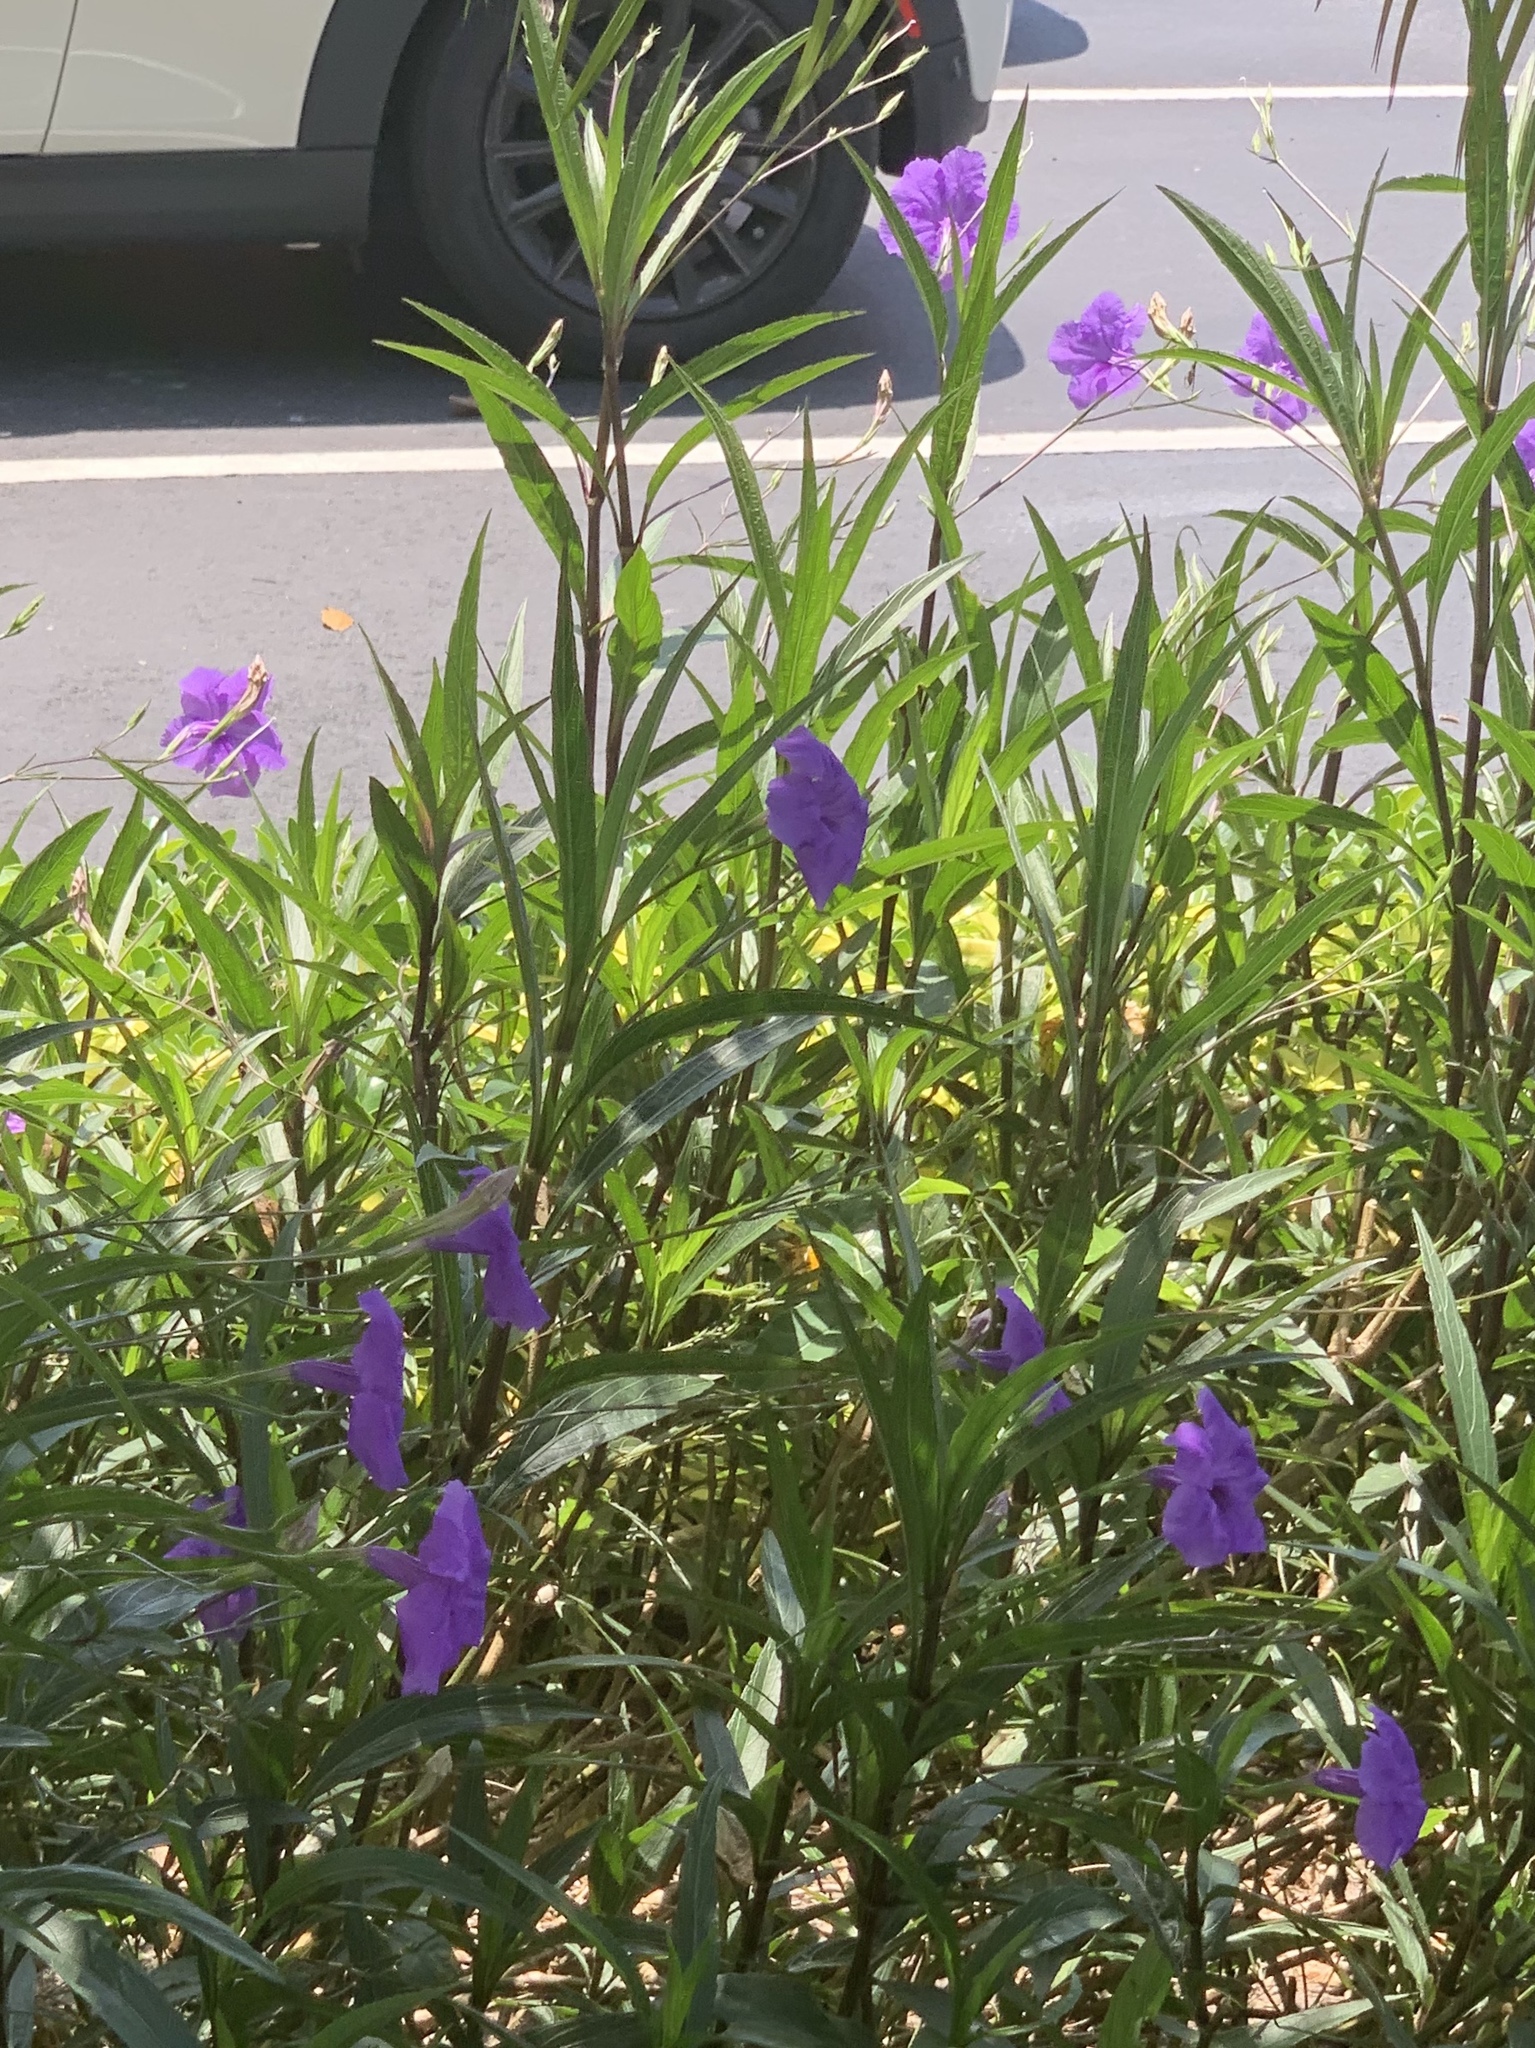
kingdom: Plantae
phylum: Tracheophyta
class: Magnoliopsida
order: Lamiales
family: Acanthaceae
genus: Ruellia
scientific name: Ruellia simplex
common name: Softseed wild petunia
